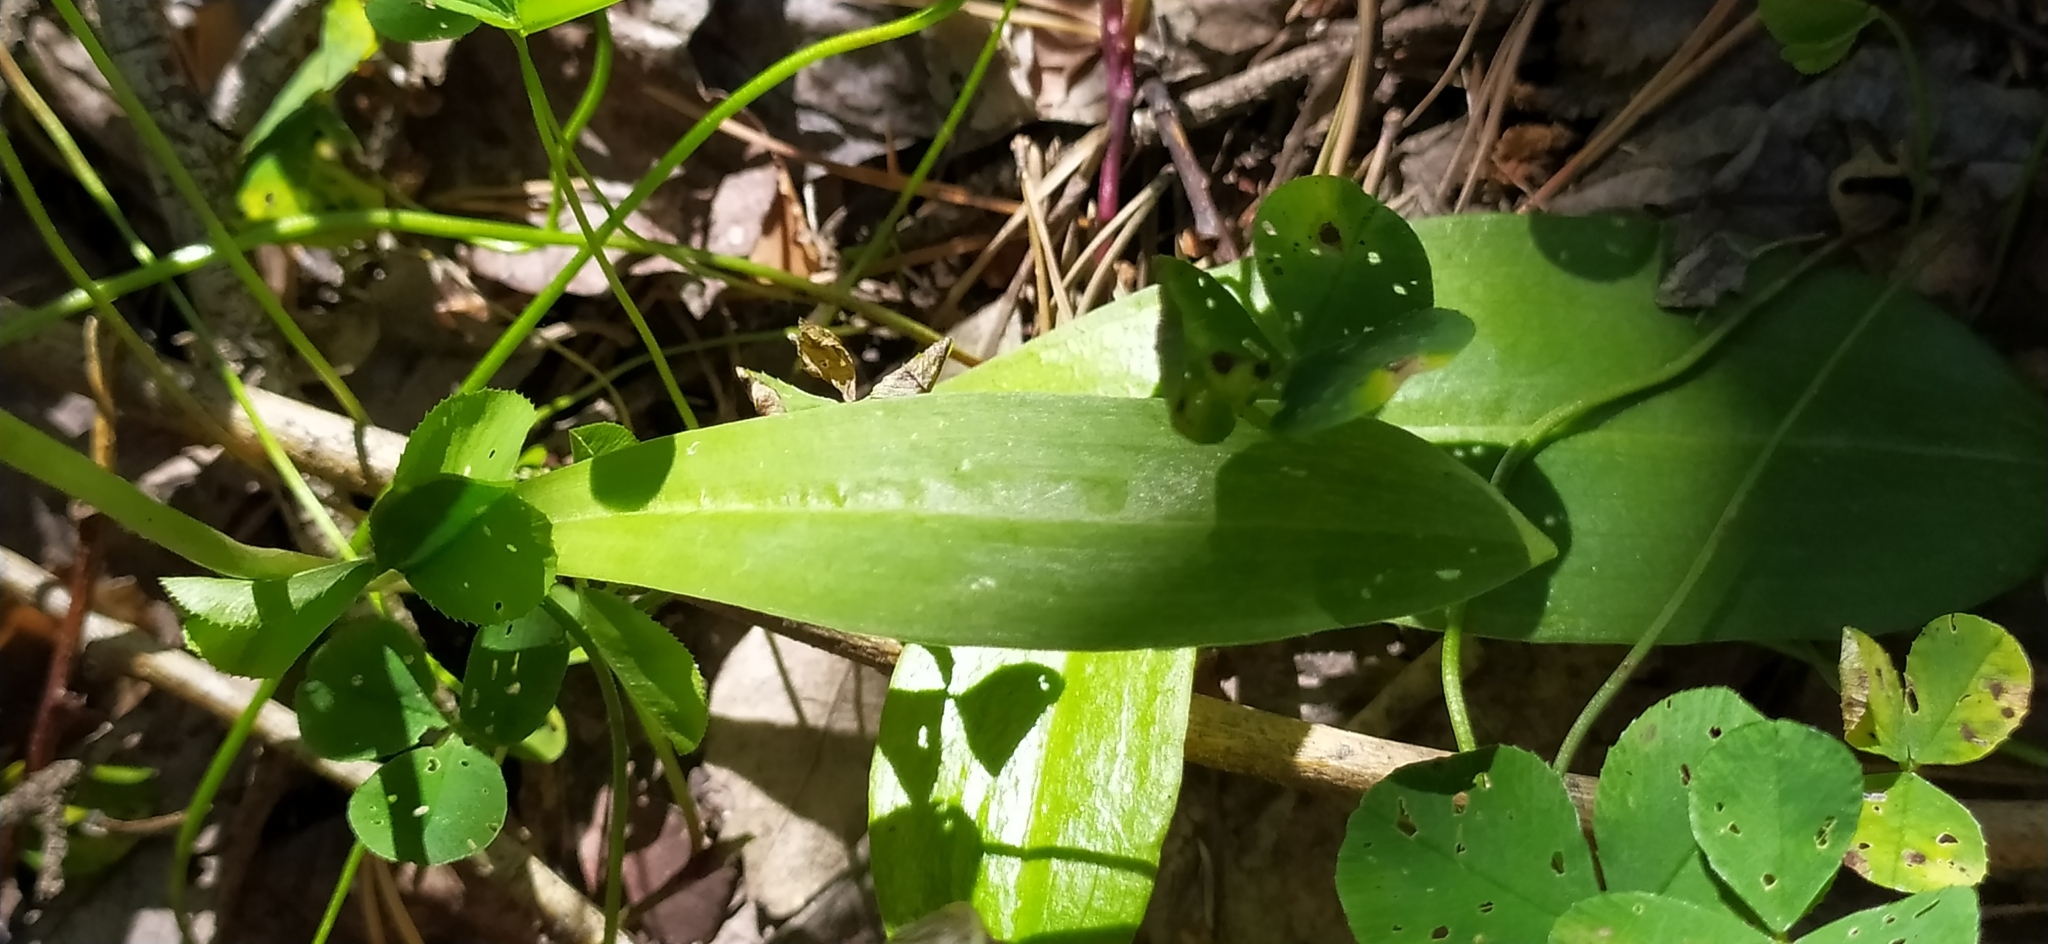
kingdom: Plantae
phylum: Tracheophyta
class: Liliopsida
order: Asparagales
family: Orchidaceae
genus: Platanthera
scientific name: Platanthera bifolia
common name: Lesser butterfly-orchid
